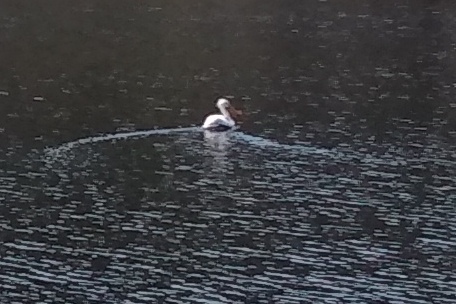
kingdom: Animalia
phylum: Chordata
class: Aves
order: Pelecaniformes
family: Pelecanidae
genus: Pelecanus
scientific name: Pelecanus erythrorhynchos
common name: American white pelican
